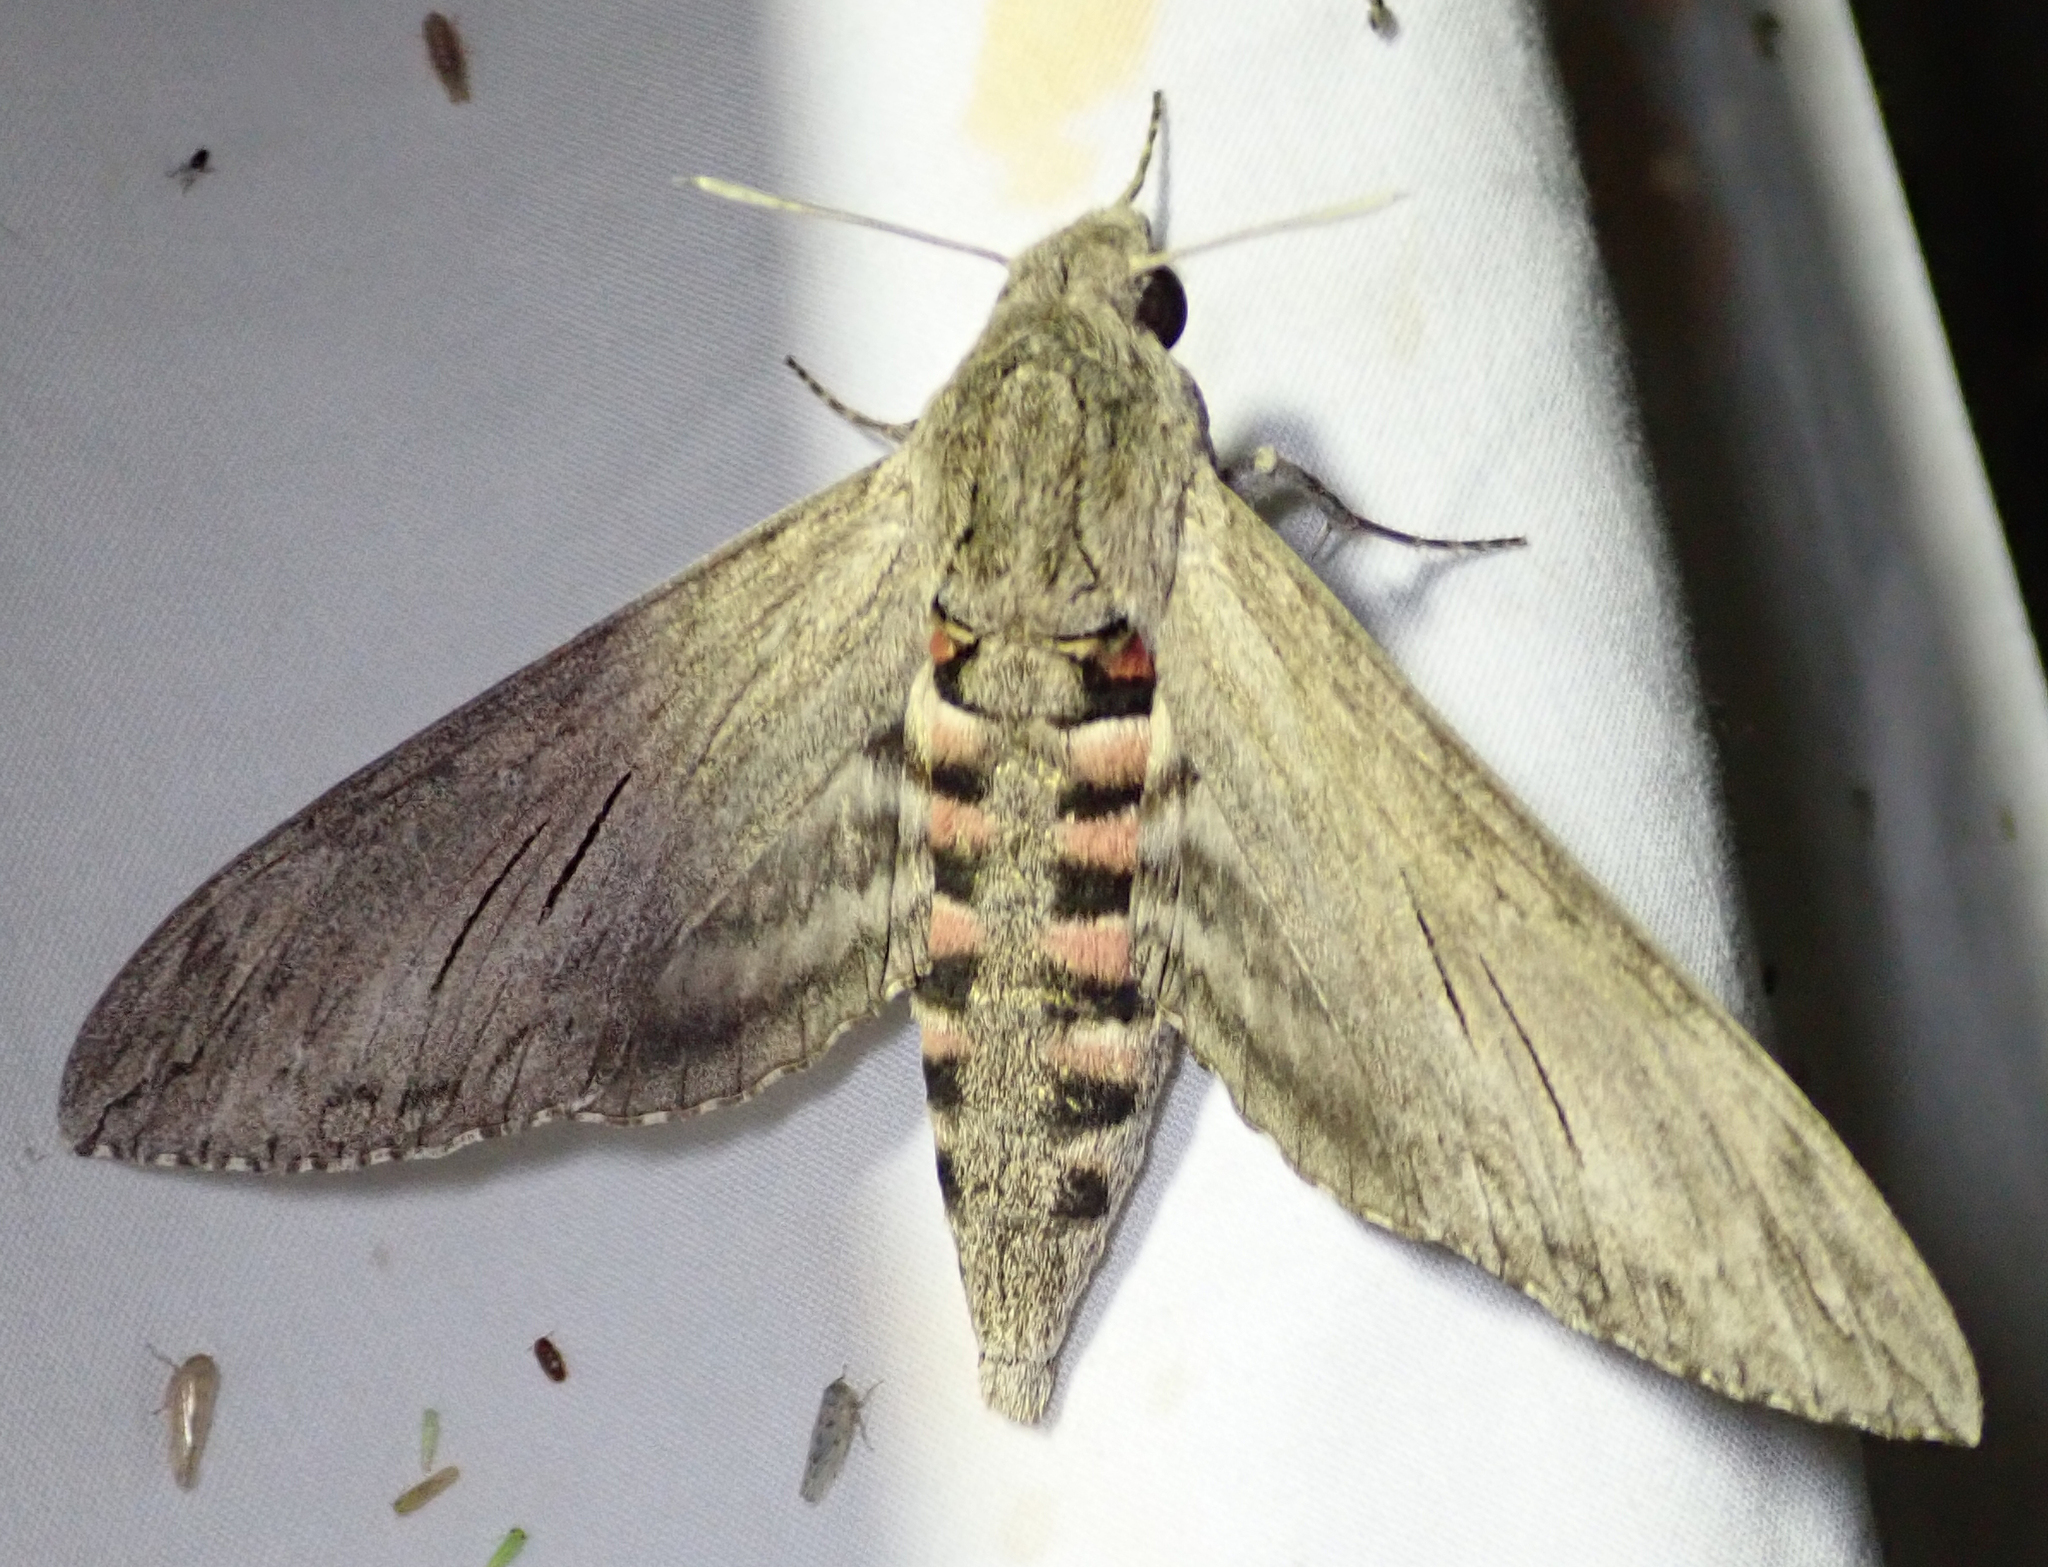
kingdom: Animalia
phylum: Arthropoda
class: Insecta
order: Lepidoptera
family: Sphingidae
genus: Agrius
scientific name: Agrius convolvuli
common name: Convolvulus hawkmoth
